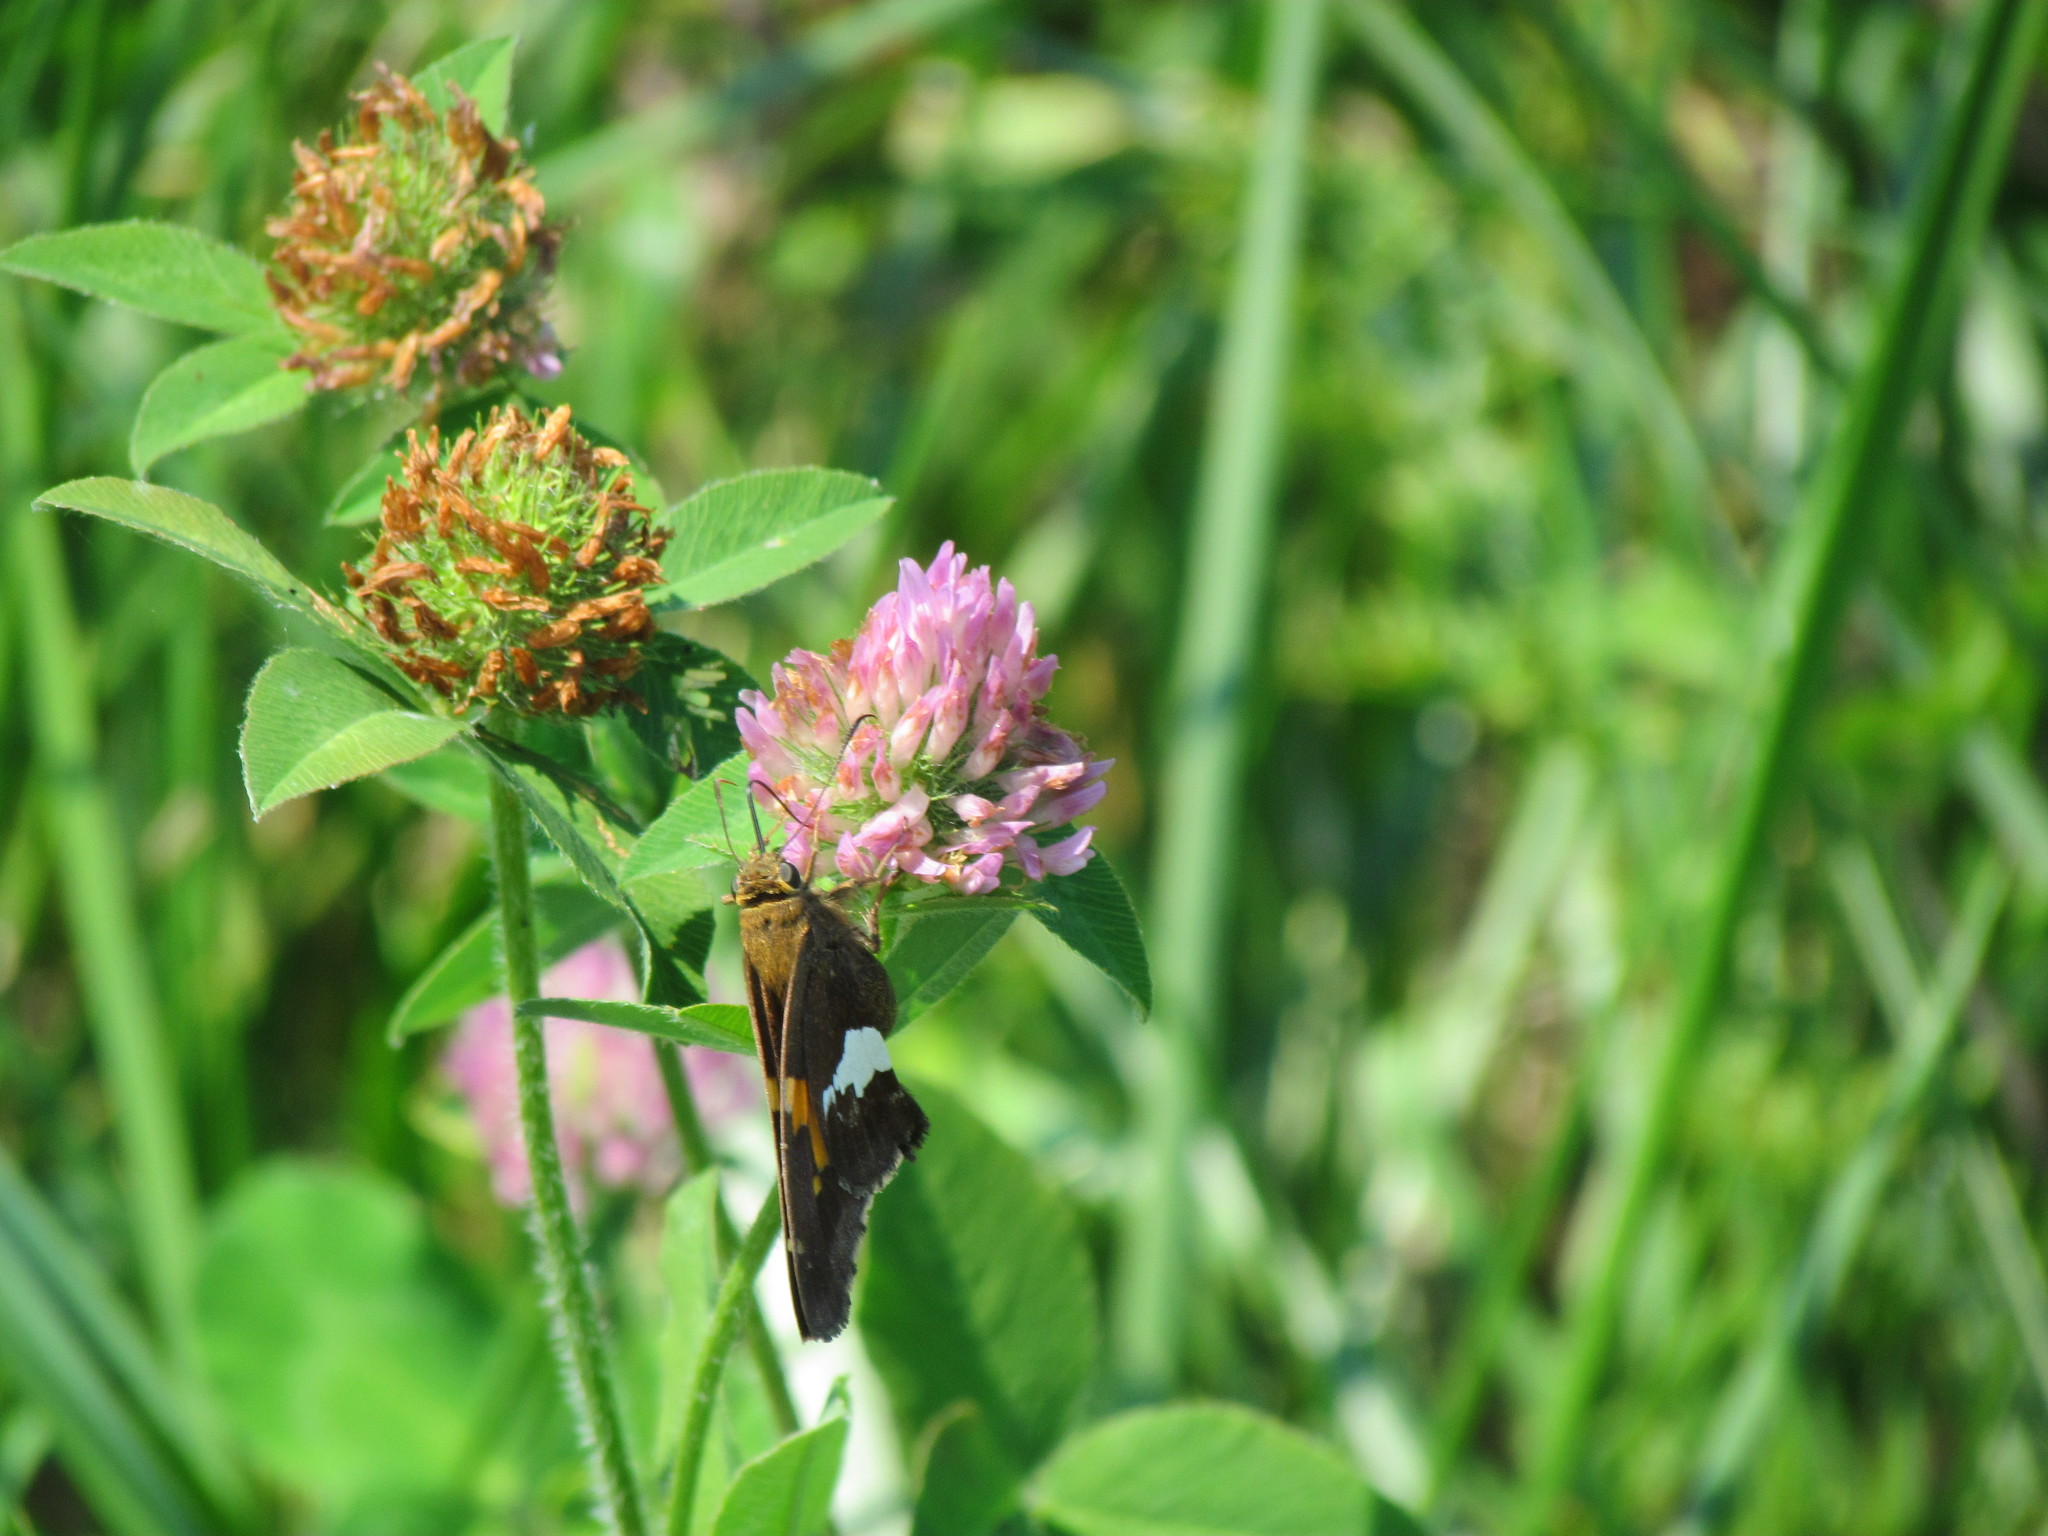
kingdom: Animalia
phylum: Arthropoda
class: Insecta
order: Lepidoptera
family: Hesperiidae
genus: Epargyreus
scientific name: Epargyreus clarus
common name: Silver-spotted skipper
